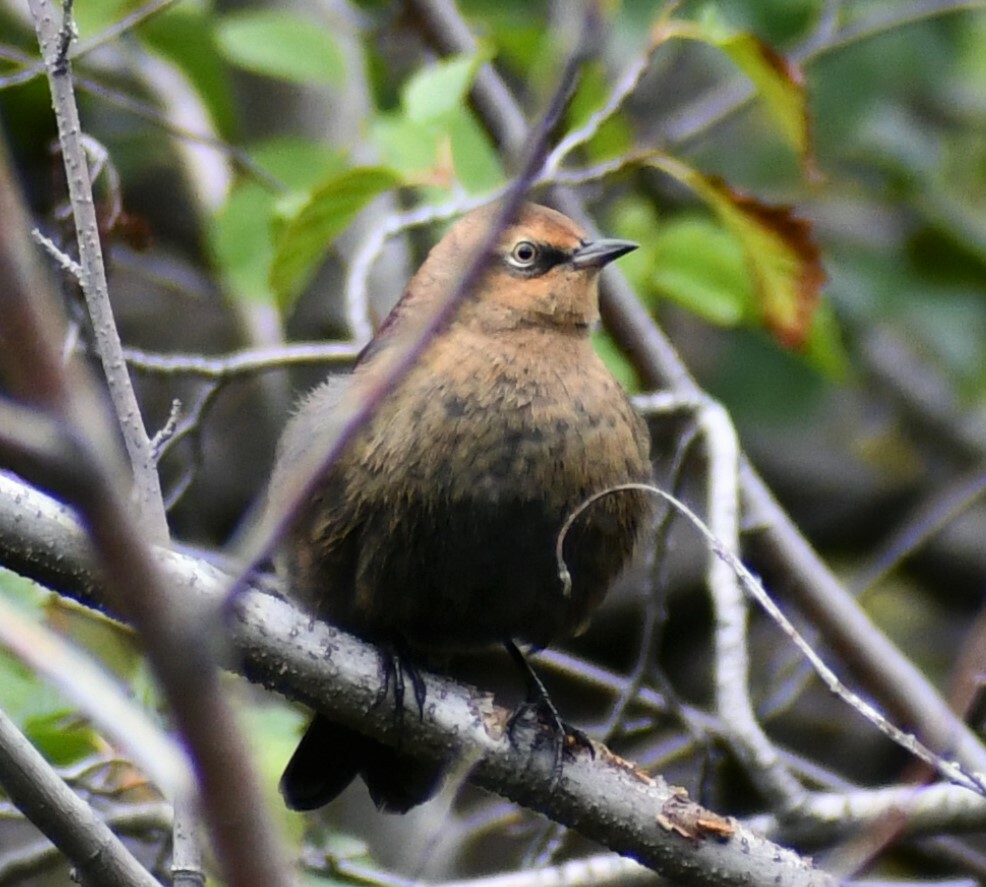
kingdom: Animalia
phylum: Chordata
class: Aves
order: Passeriformes
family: Icteridae
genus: Euphagus
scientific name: Euphagus carolinus
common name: Rusty blackbird
